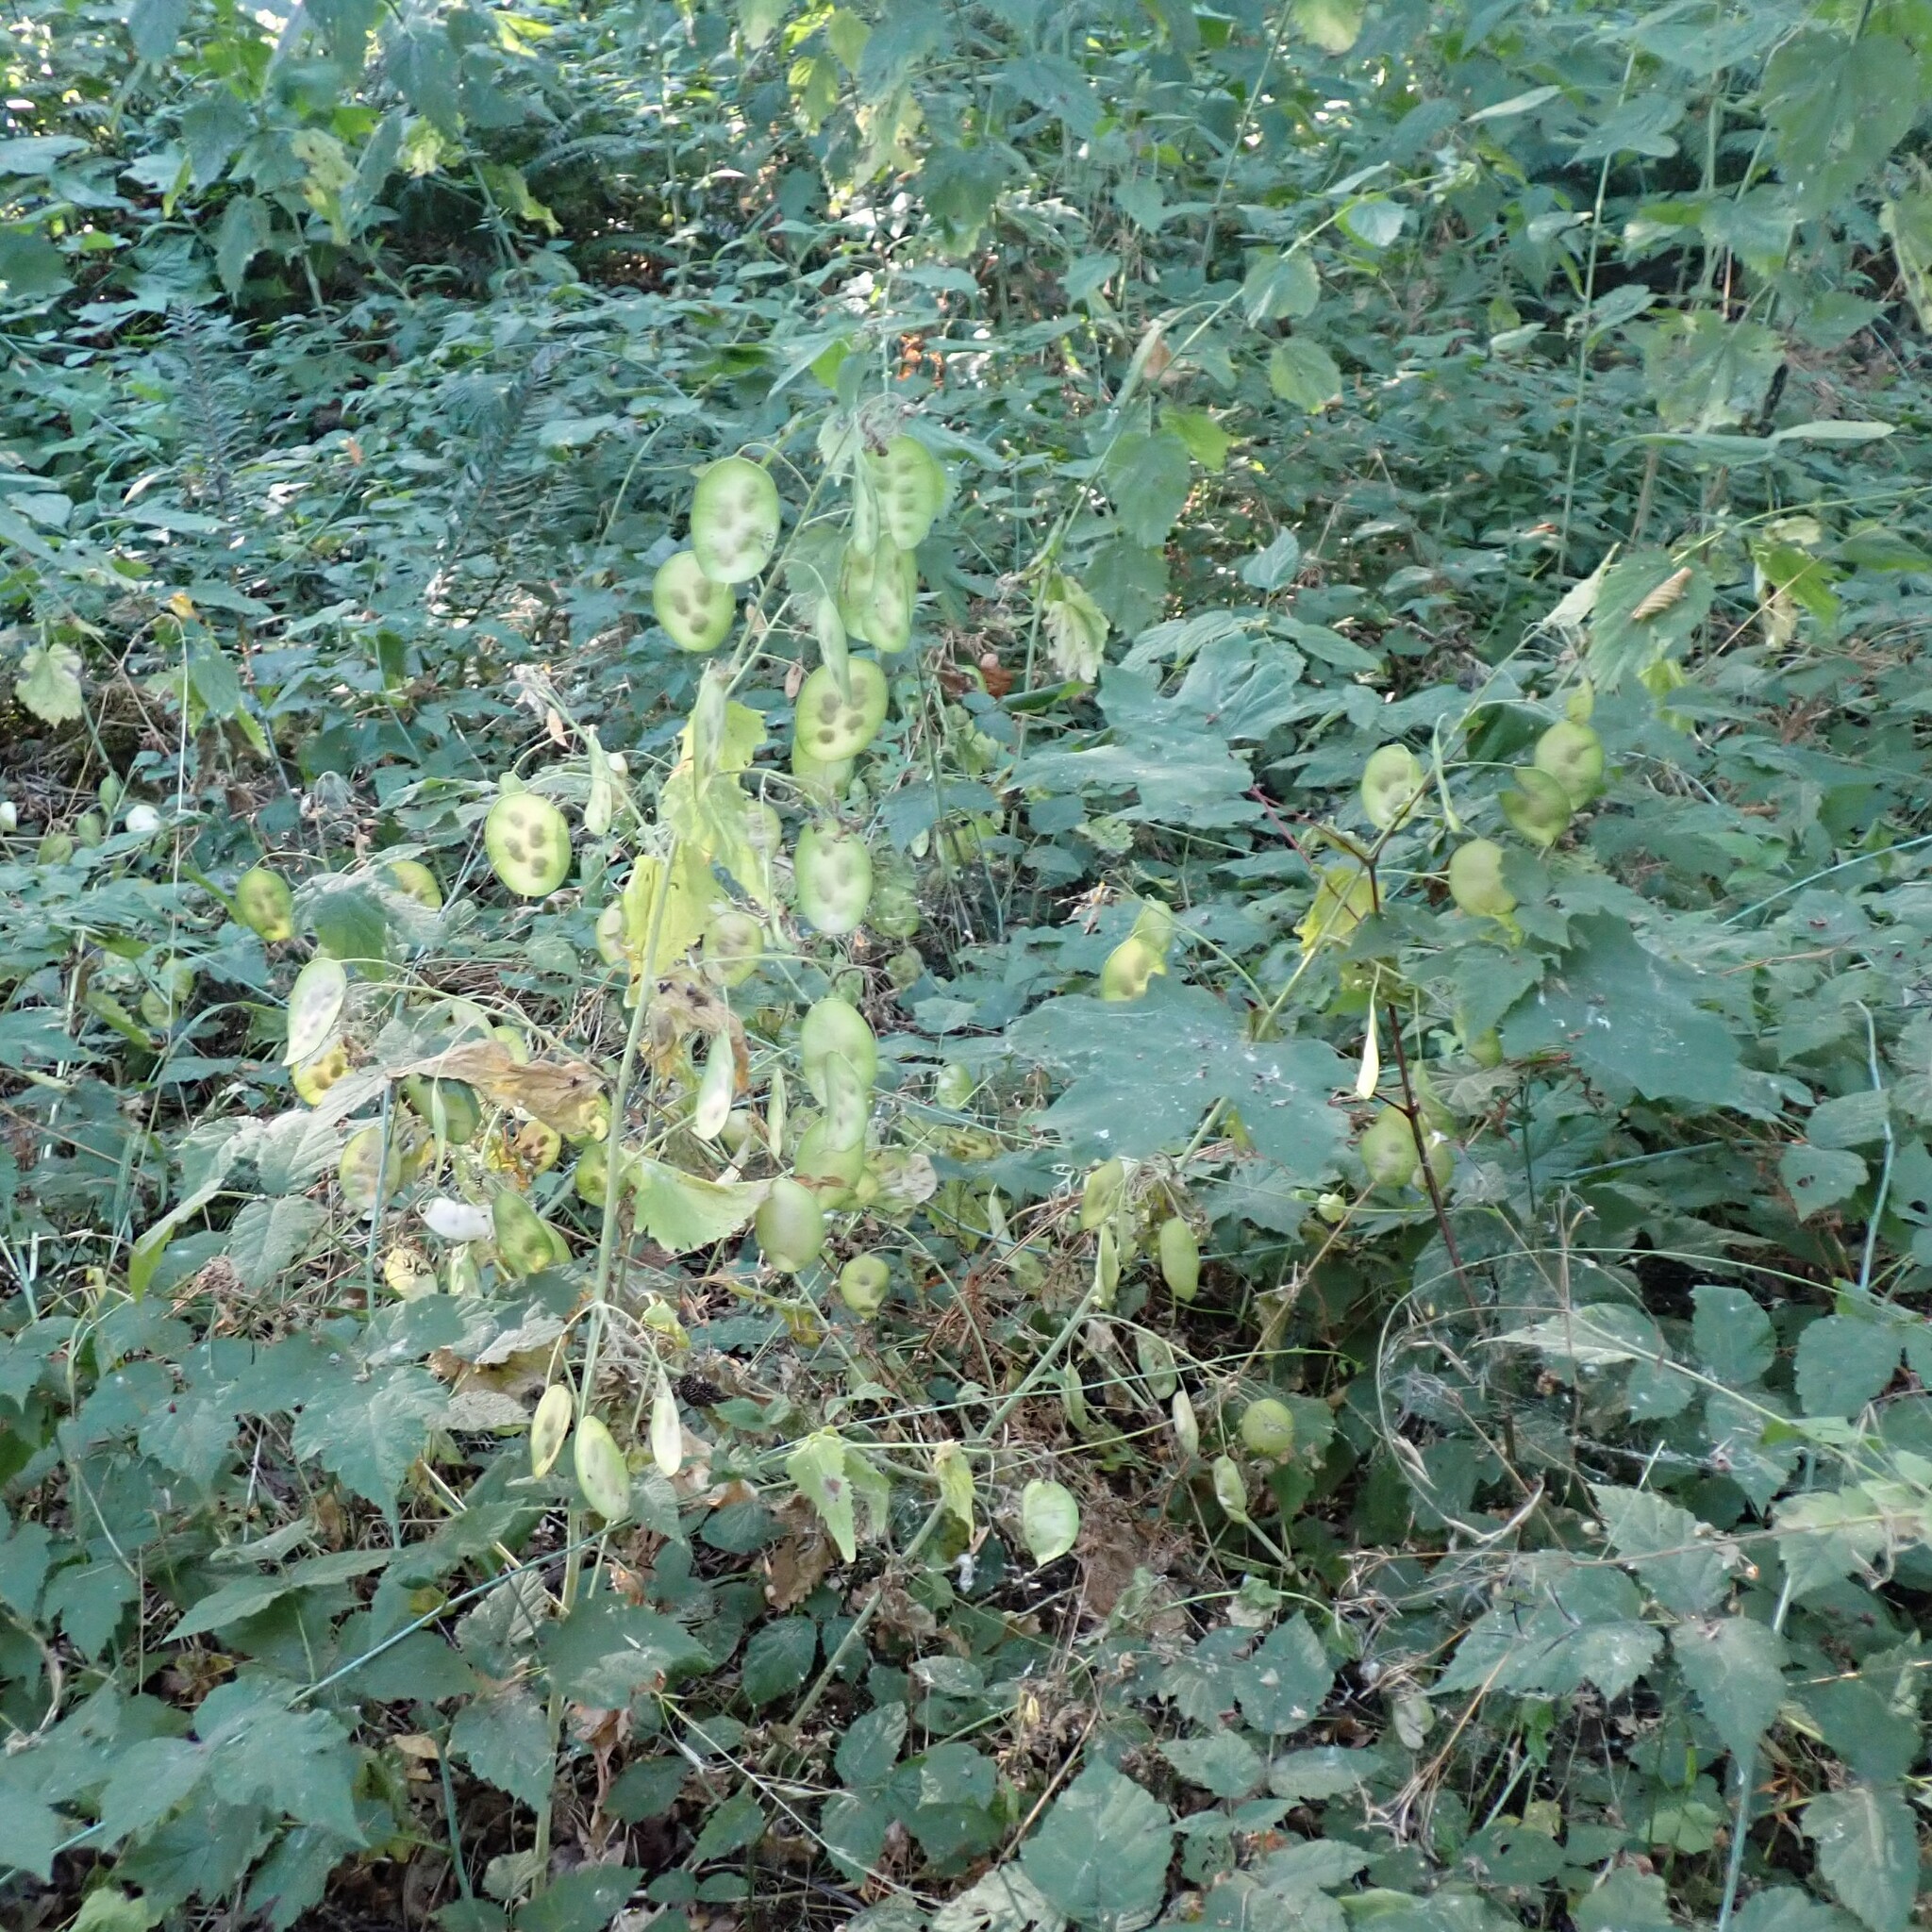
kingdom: Plantae
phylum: Tracheophyta
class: Magnoliopsida
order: Brassicales
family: Brassicaceae
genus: Lunaria
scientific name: Lunaria annua
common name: Honesty
